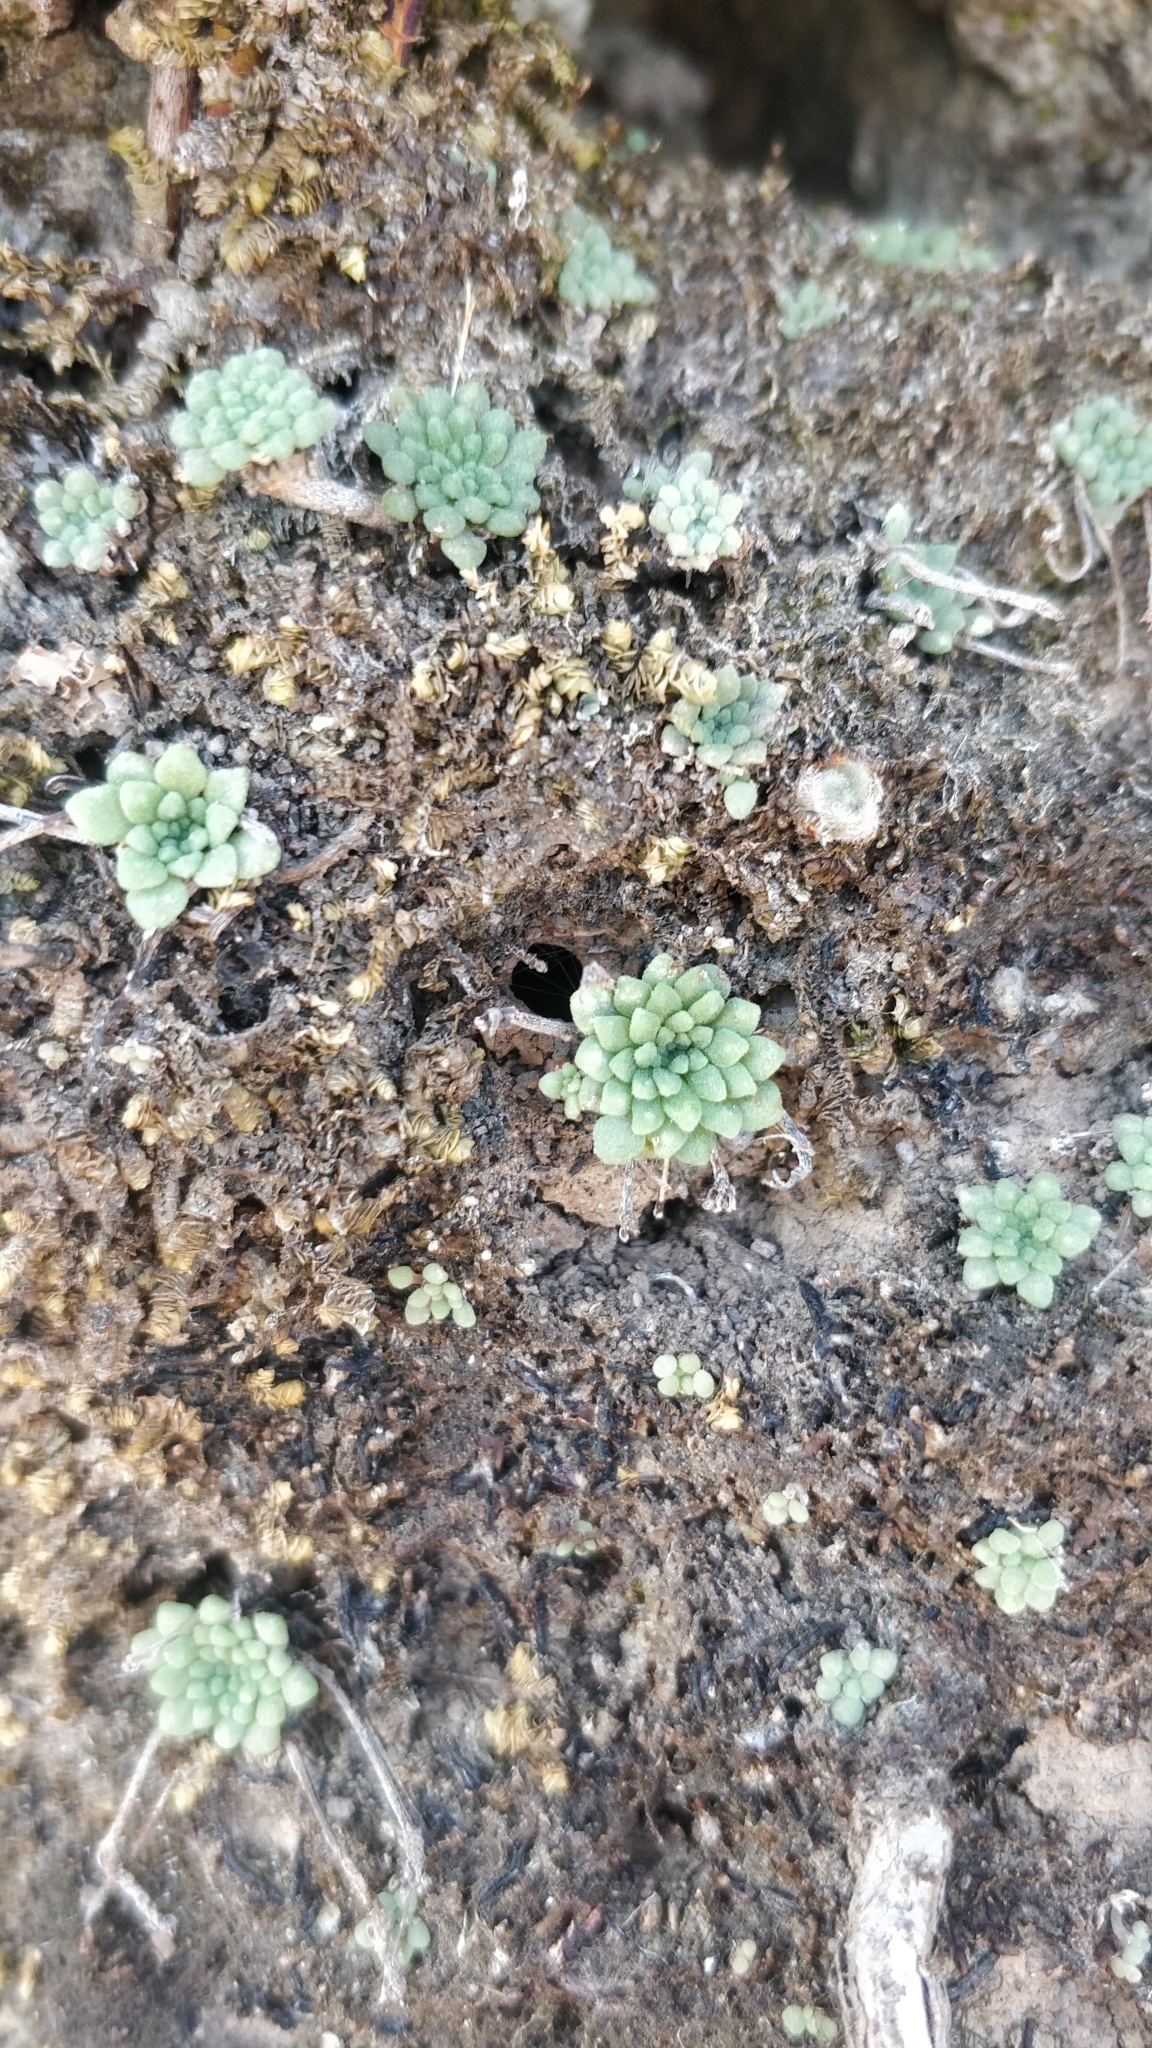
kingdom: Plantae
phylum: Tracheophyta
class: Magnoliopsida
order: Saxifragales
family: Crassulaceae
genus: Monanthes
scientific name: Monanthes brachycaulos
